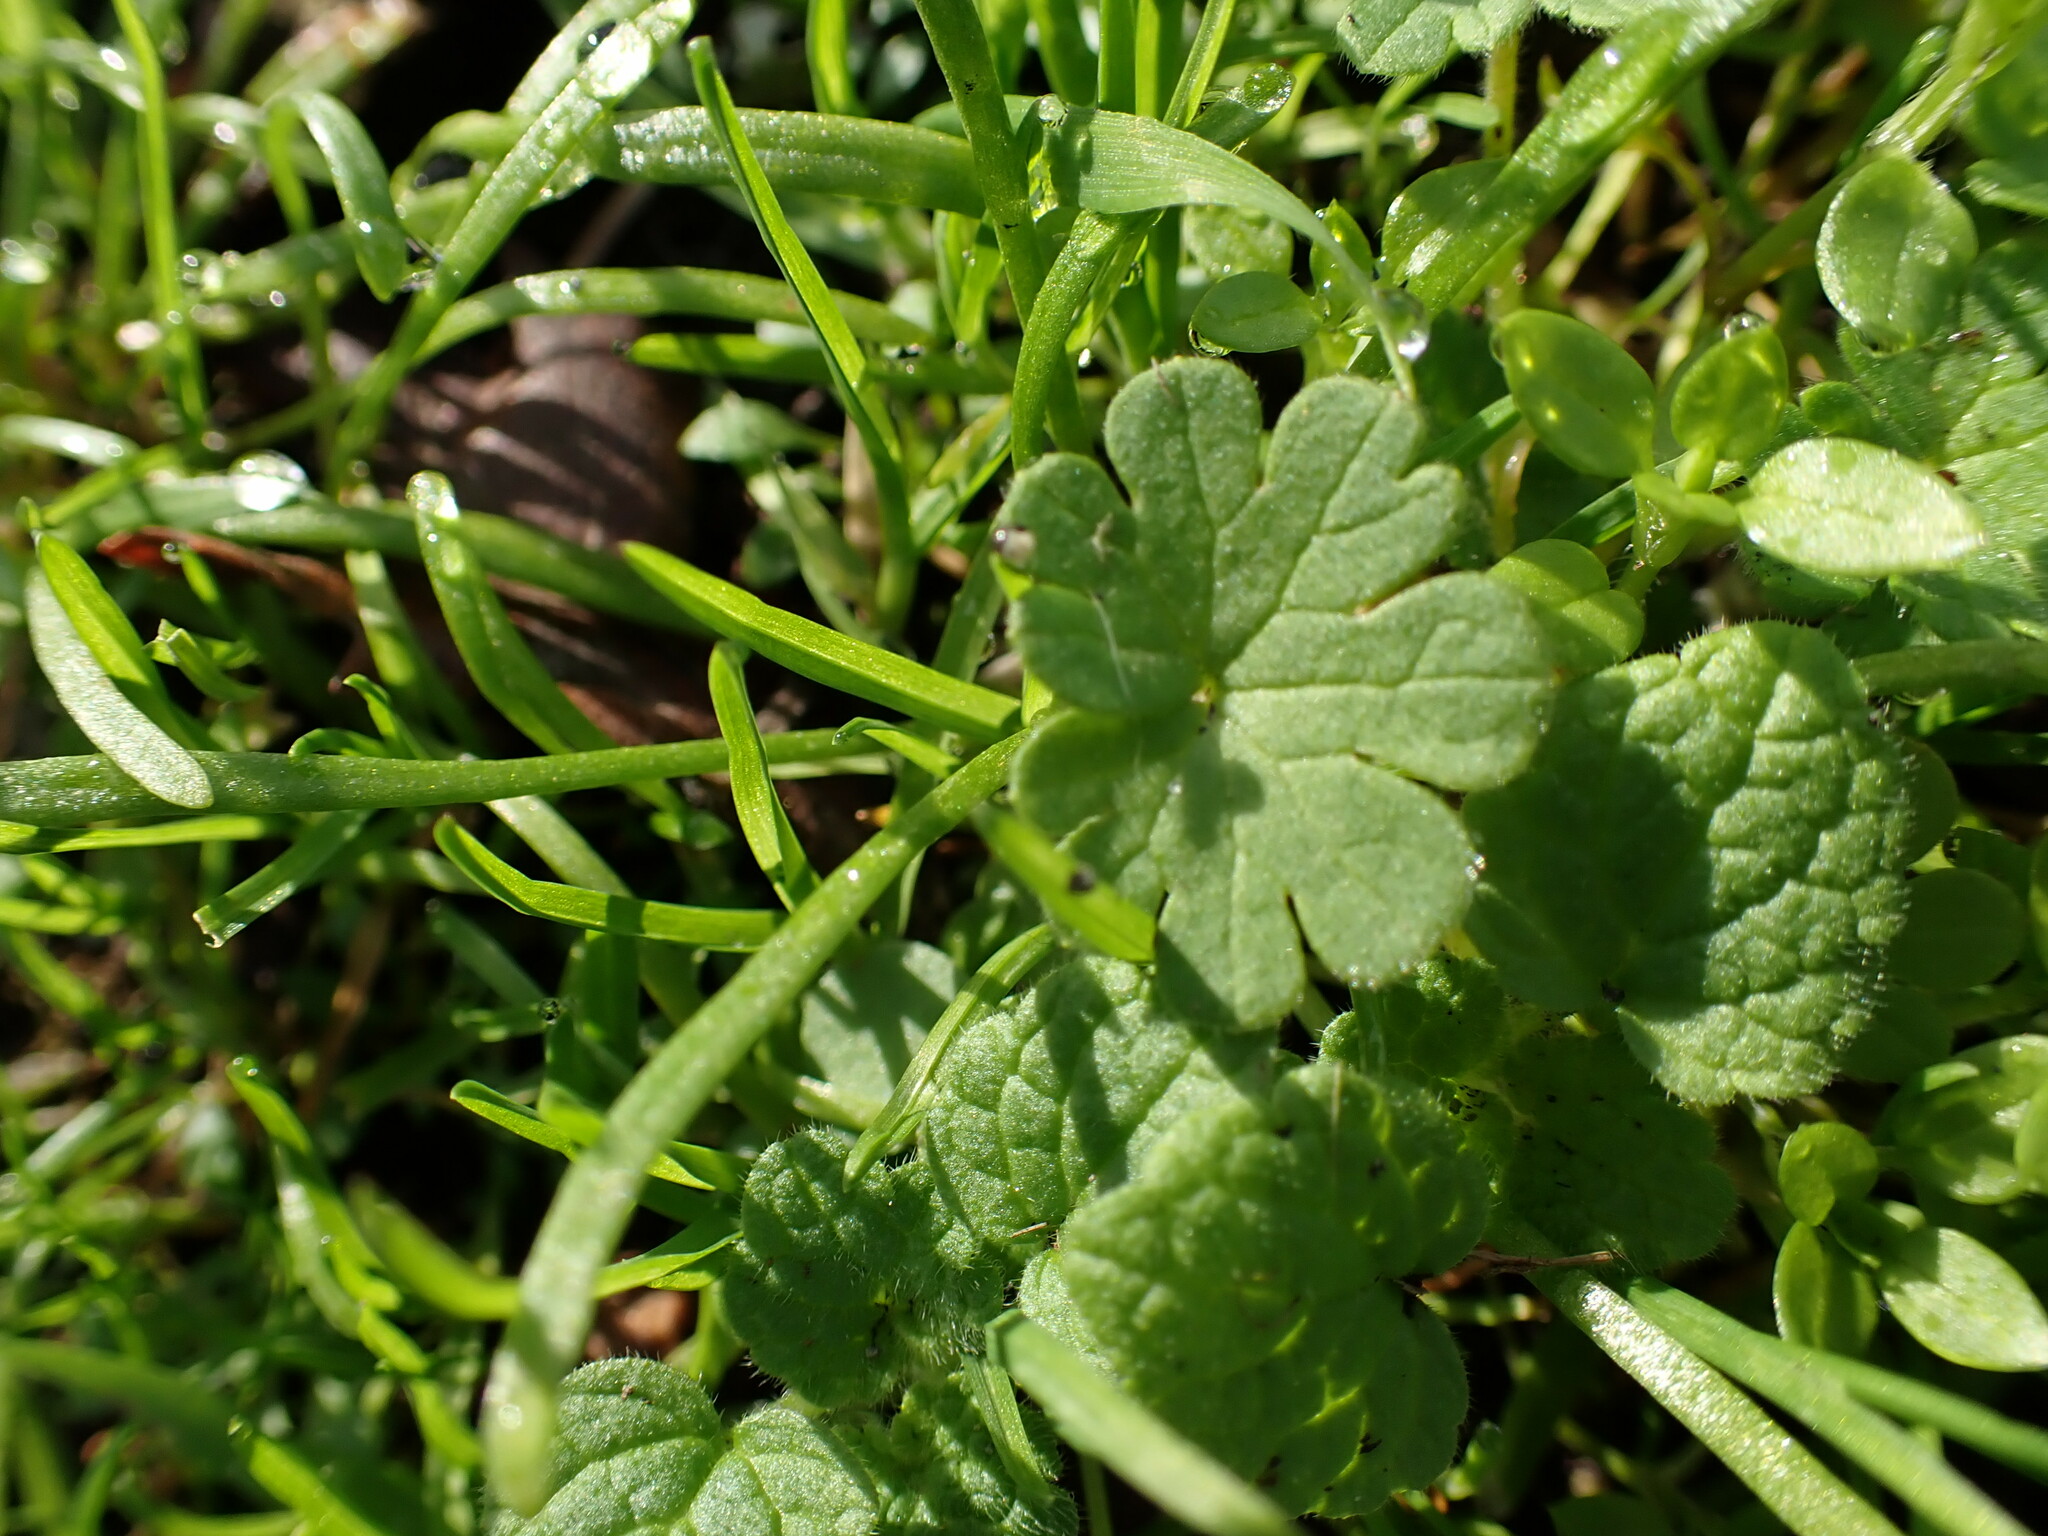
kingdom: Plantae
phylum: Tracheophyta
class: Magnoliopsida
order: Geraniales
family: Geraniaceae
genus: Geranium
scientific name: Geranium molle
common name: Dove's-foot crane's-bill
